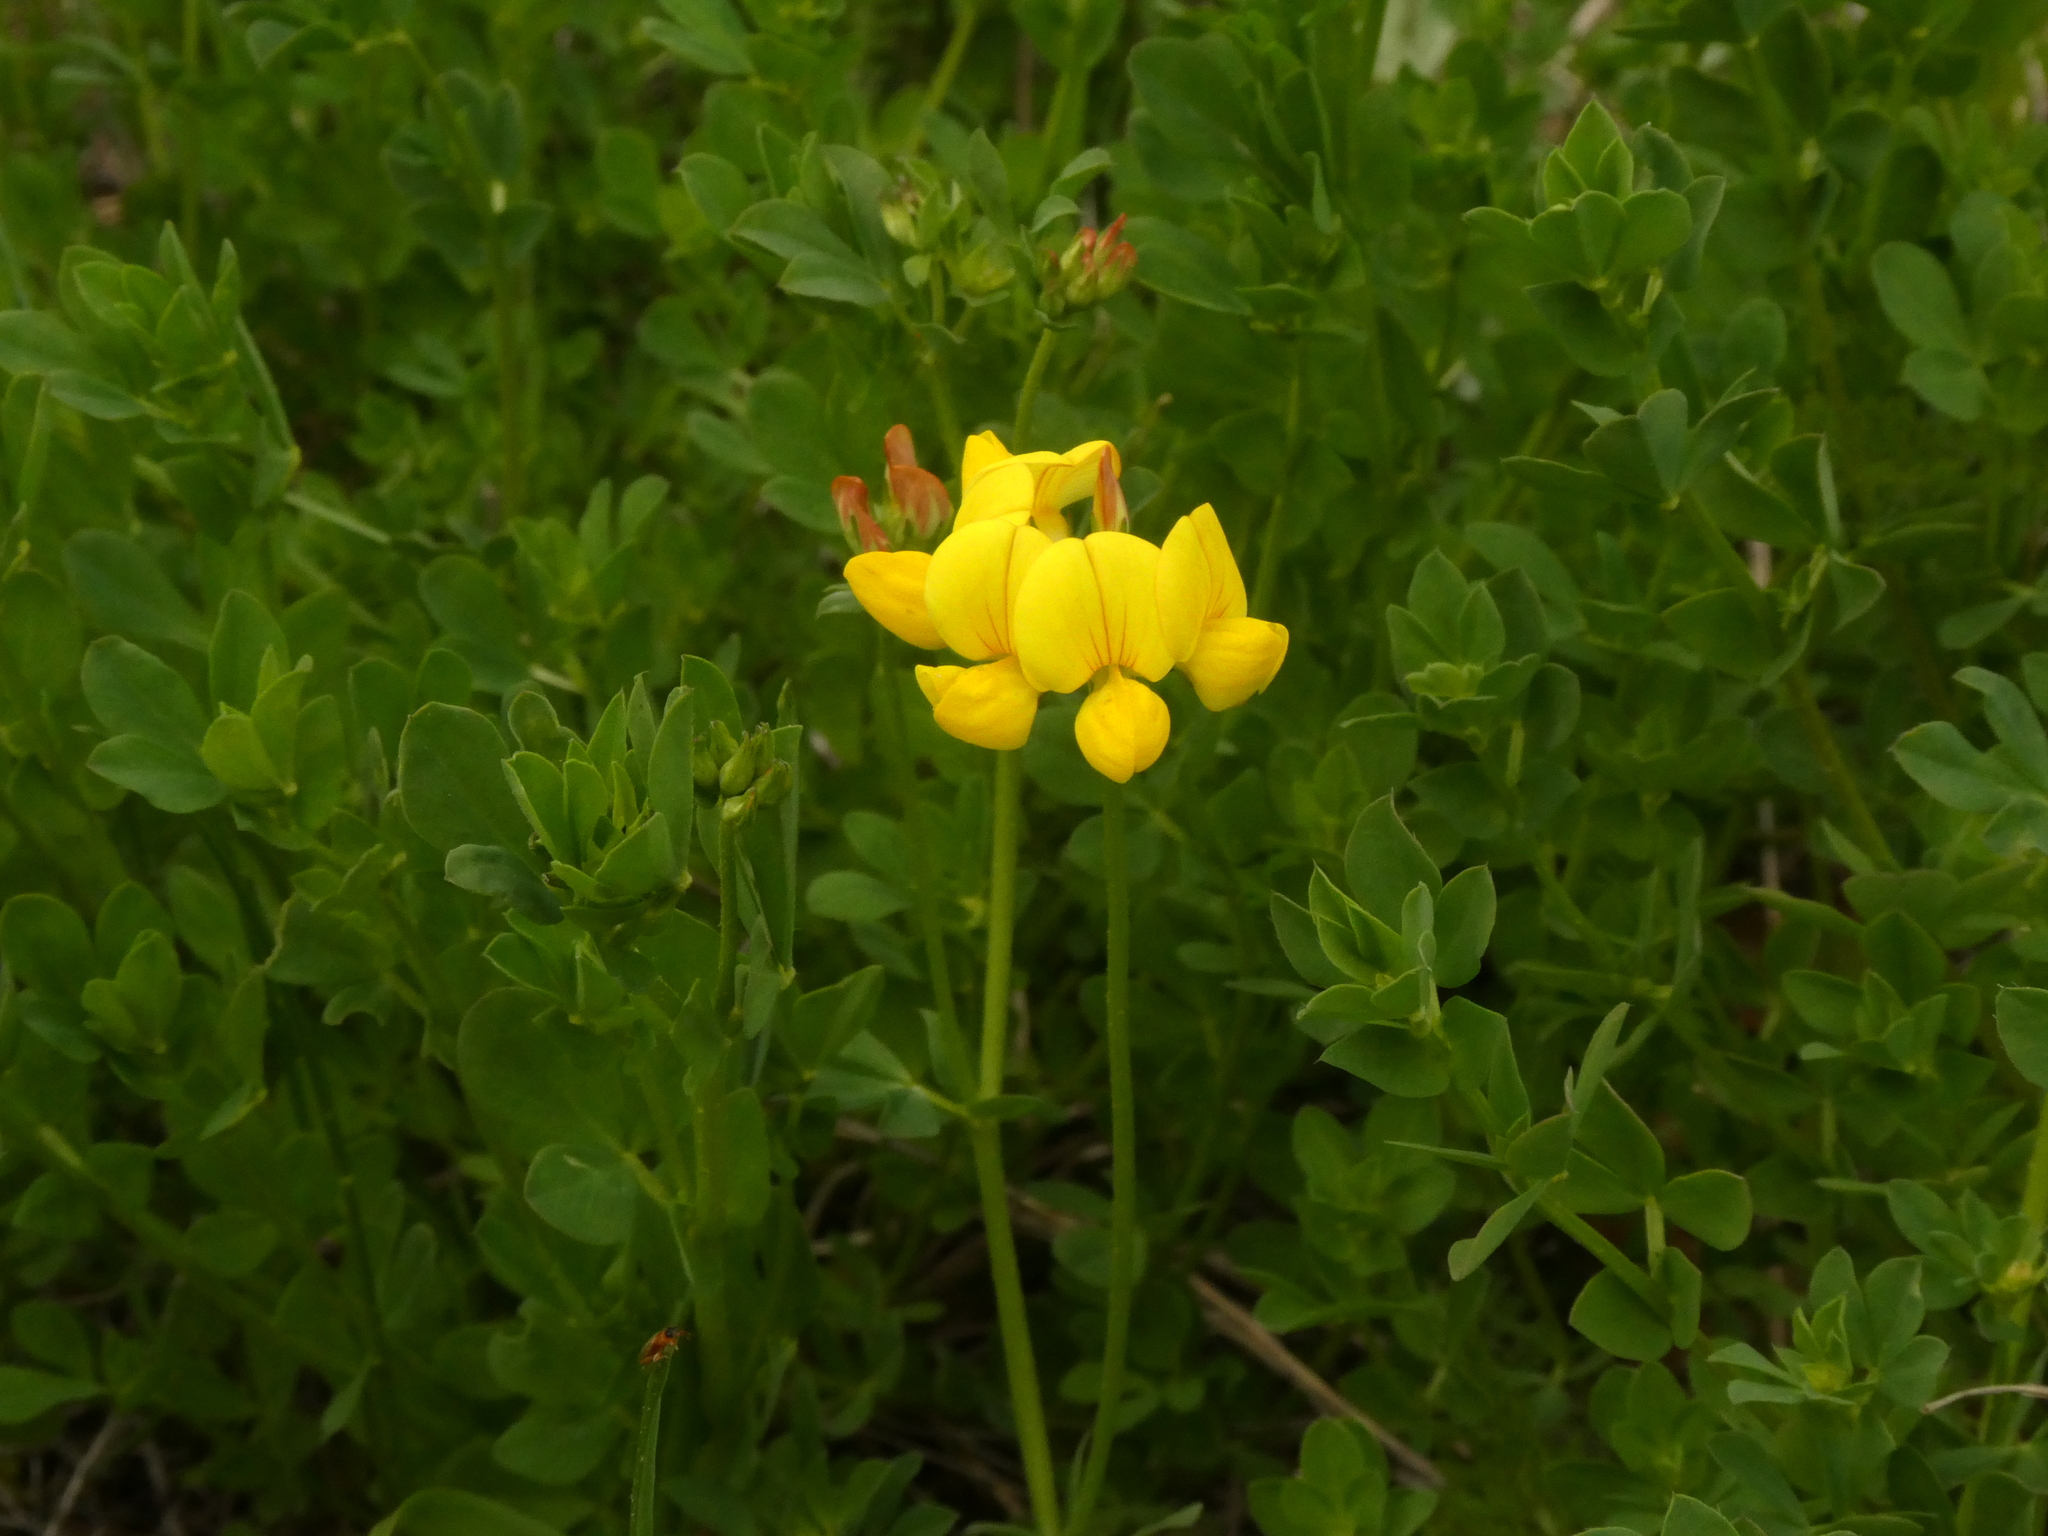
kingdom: Plantae
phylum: Tracheophyta
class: Magnoliopsida
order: Fabales
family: Fabaceae
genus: Lotus
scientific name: Lotus corniculatus
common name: Common bird's-foot-trefoil
